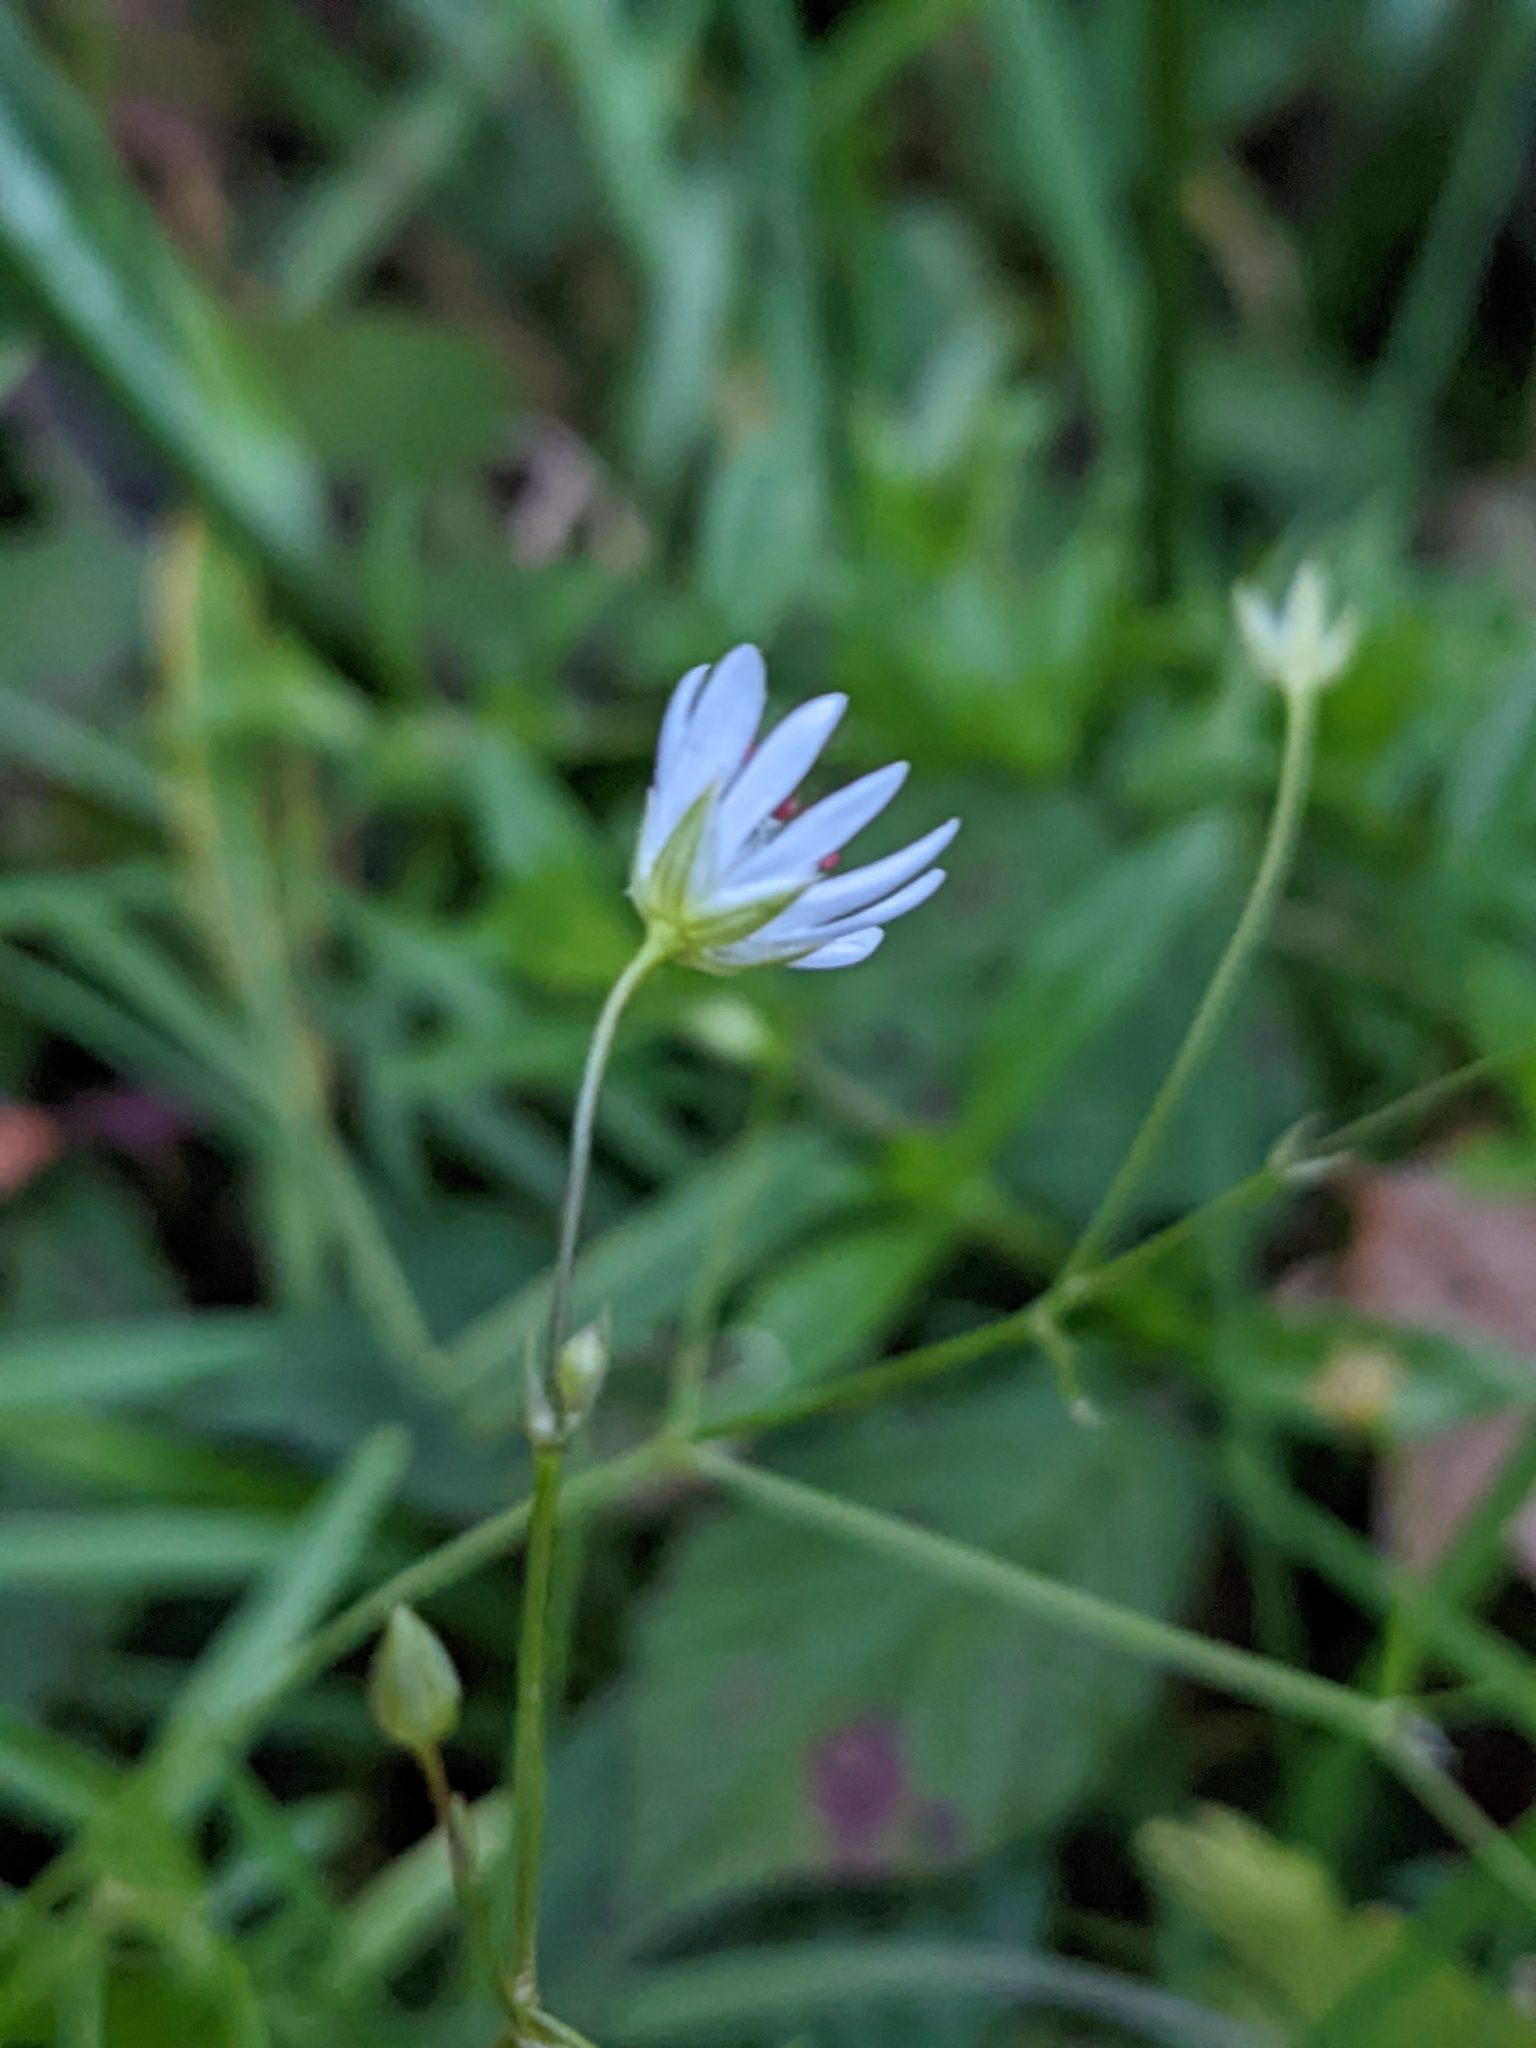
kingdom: Plantae
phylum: Tracheophyta
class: Magnoliopsida
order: Caryophyllales
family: Caryophyllaceae
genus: Stellaria
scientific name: Stellaria graminea
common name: Grass-like starwort
